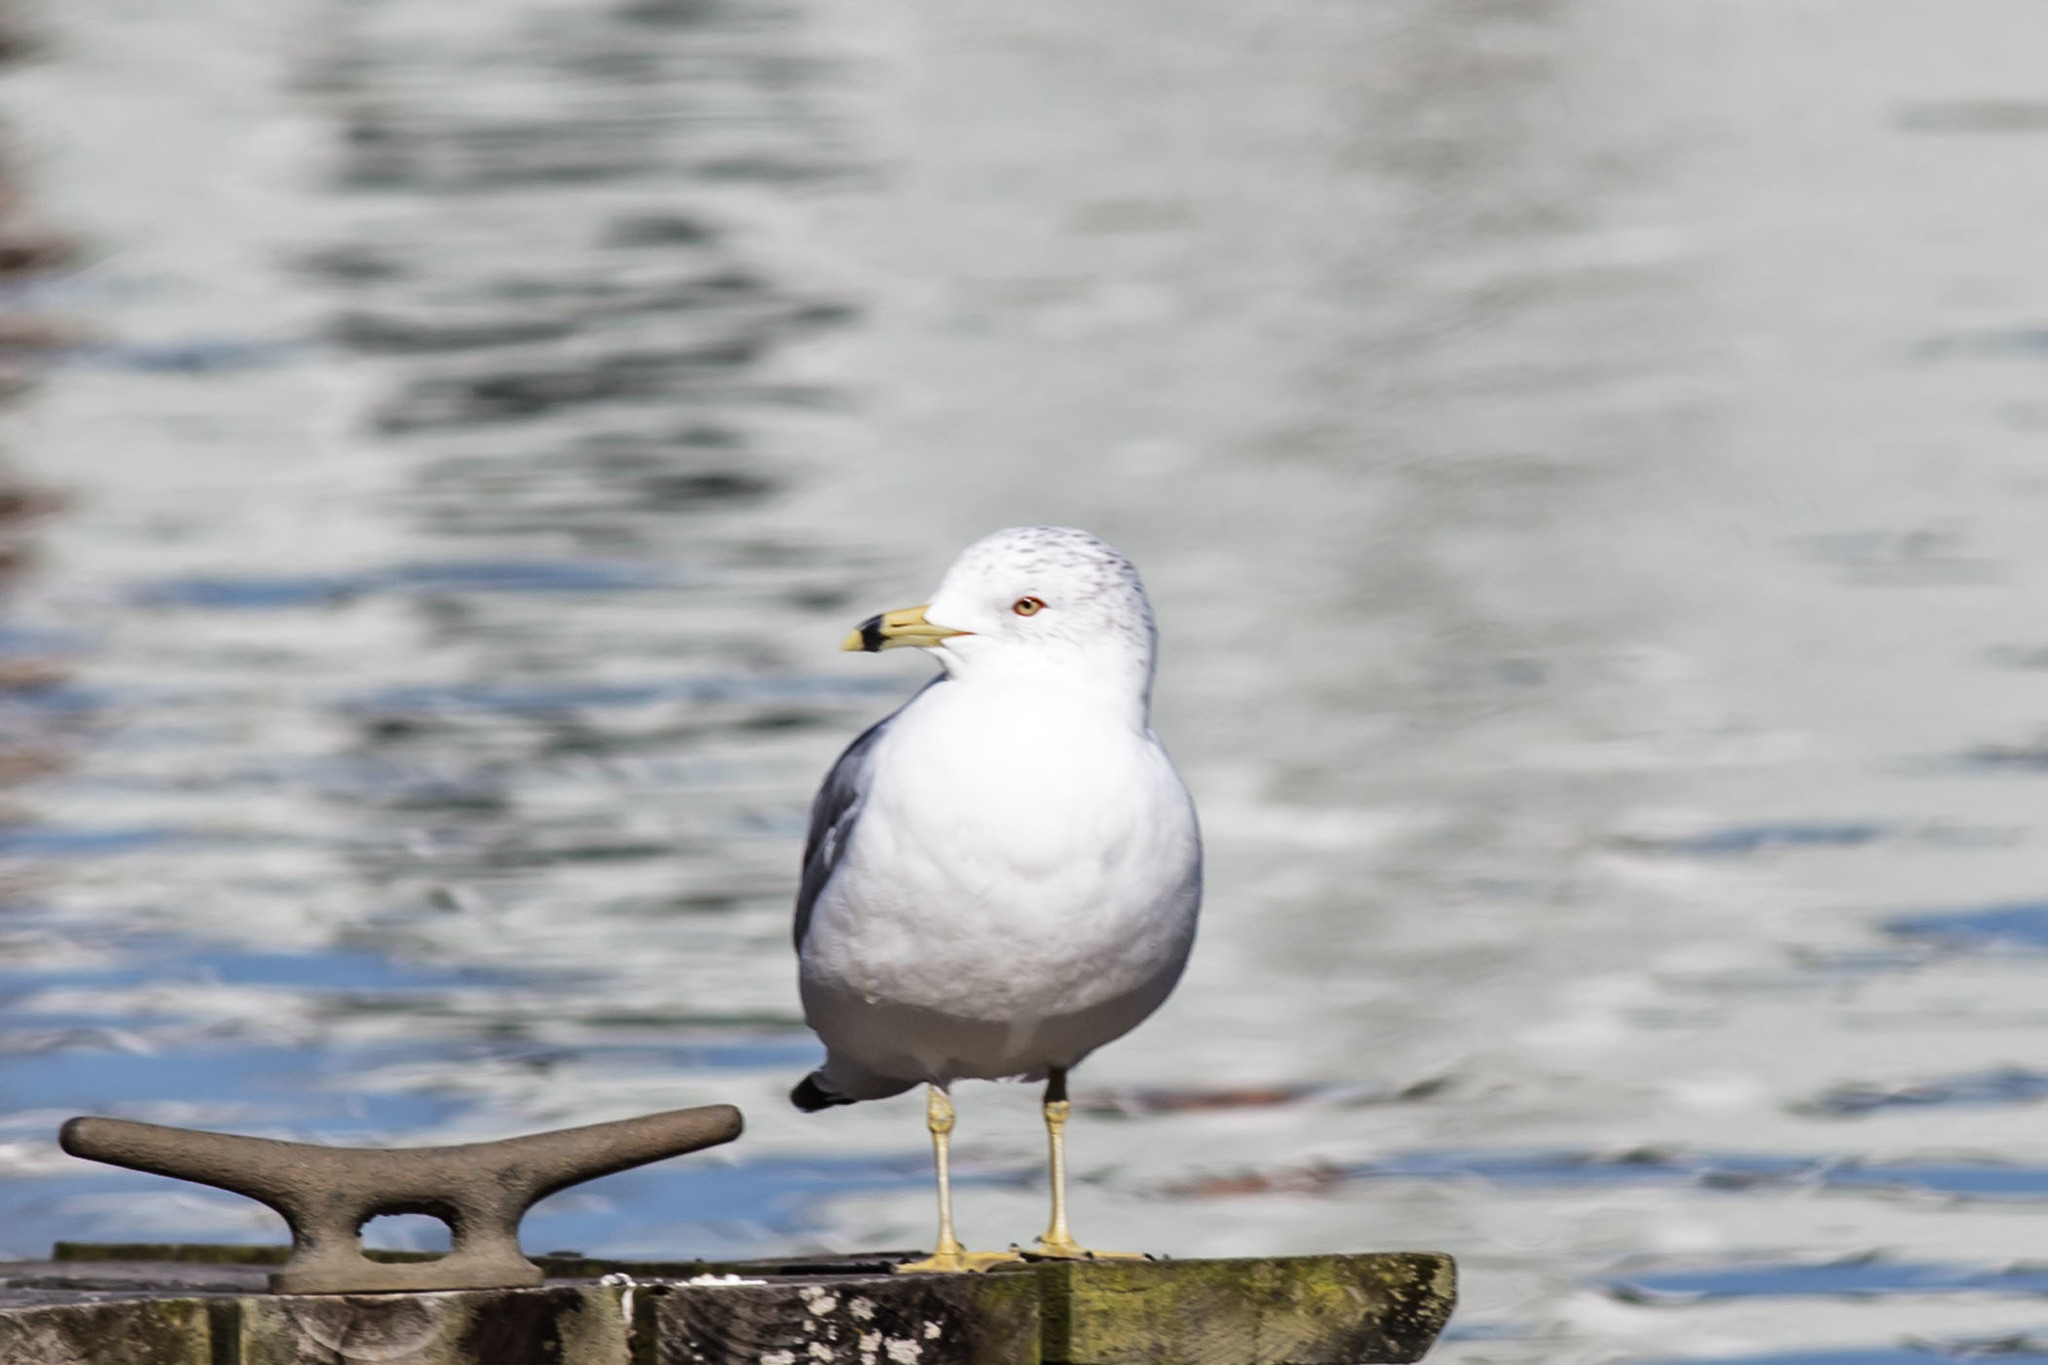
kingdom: Animalia
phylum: Chordata
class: Aves
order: Charadriiformes
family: Laridae
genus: Larus
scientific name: Larus delawarensis
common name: Ring-billed gull
